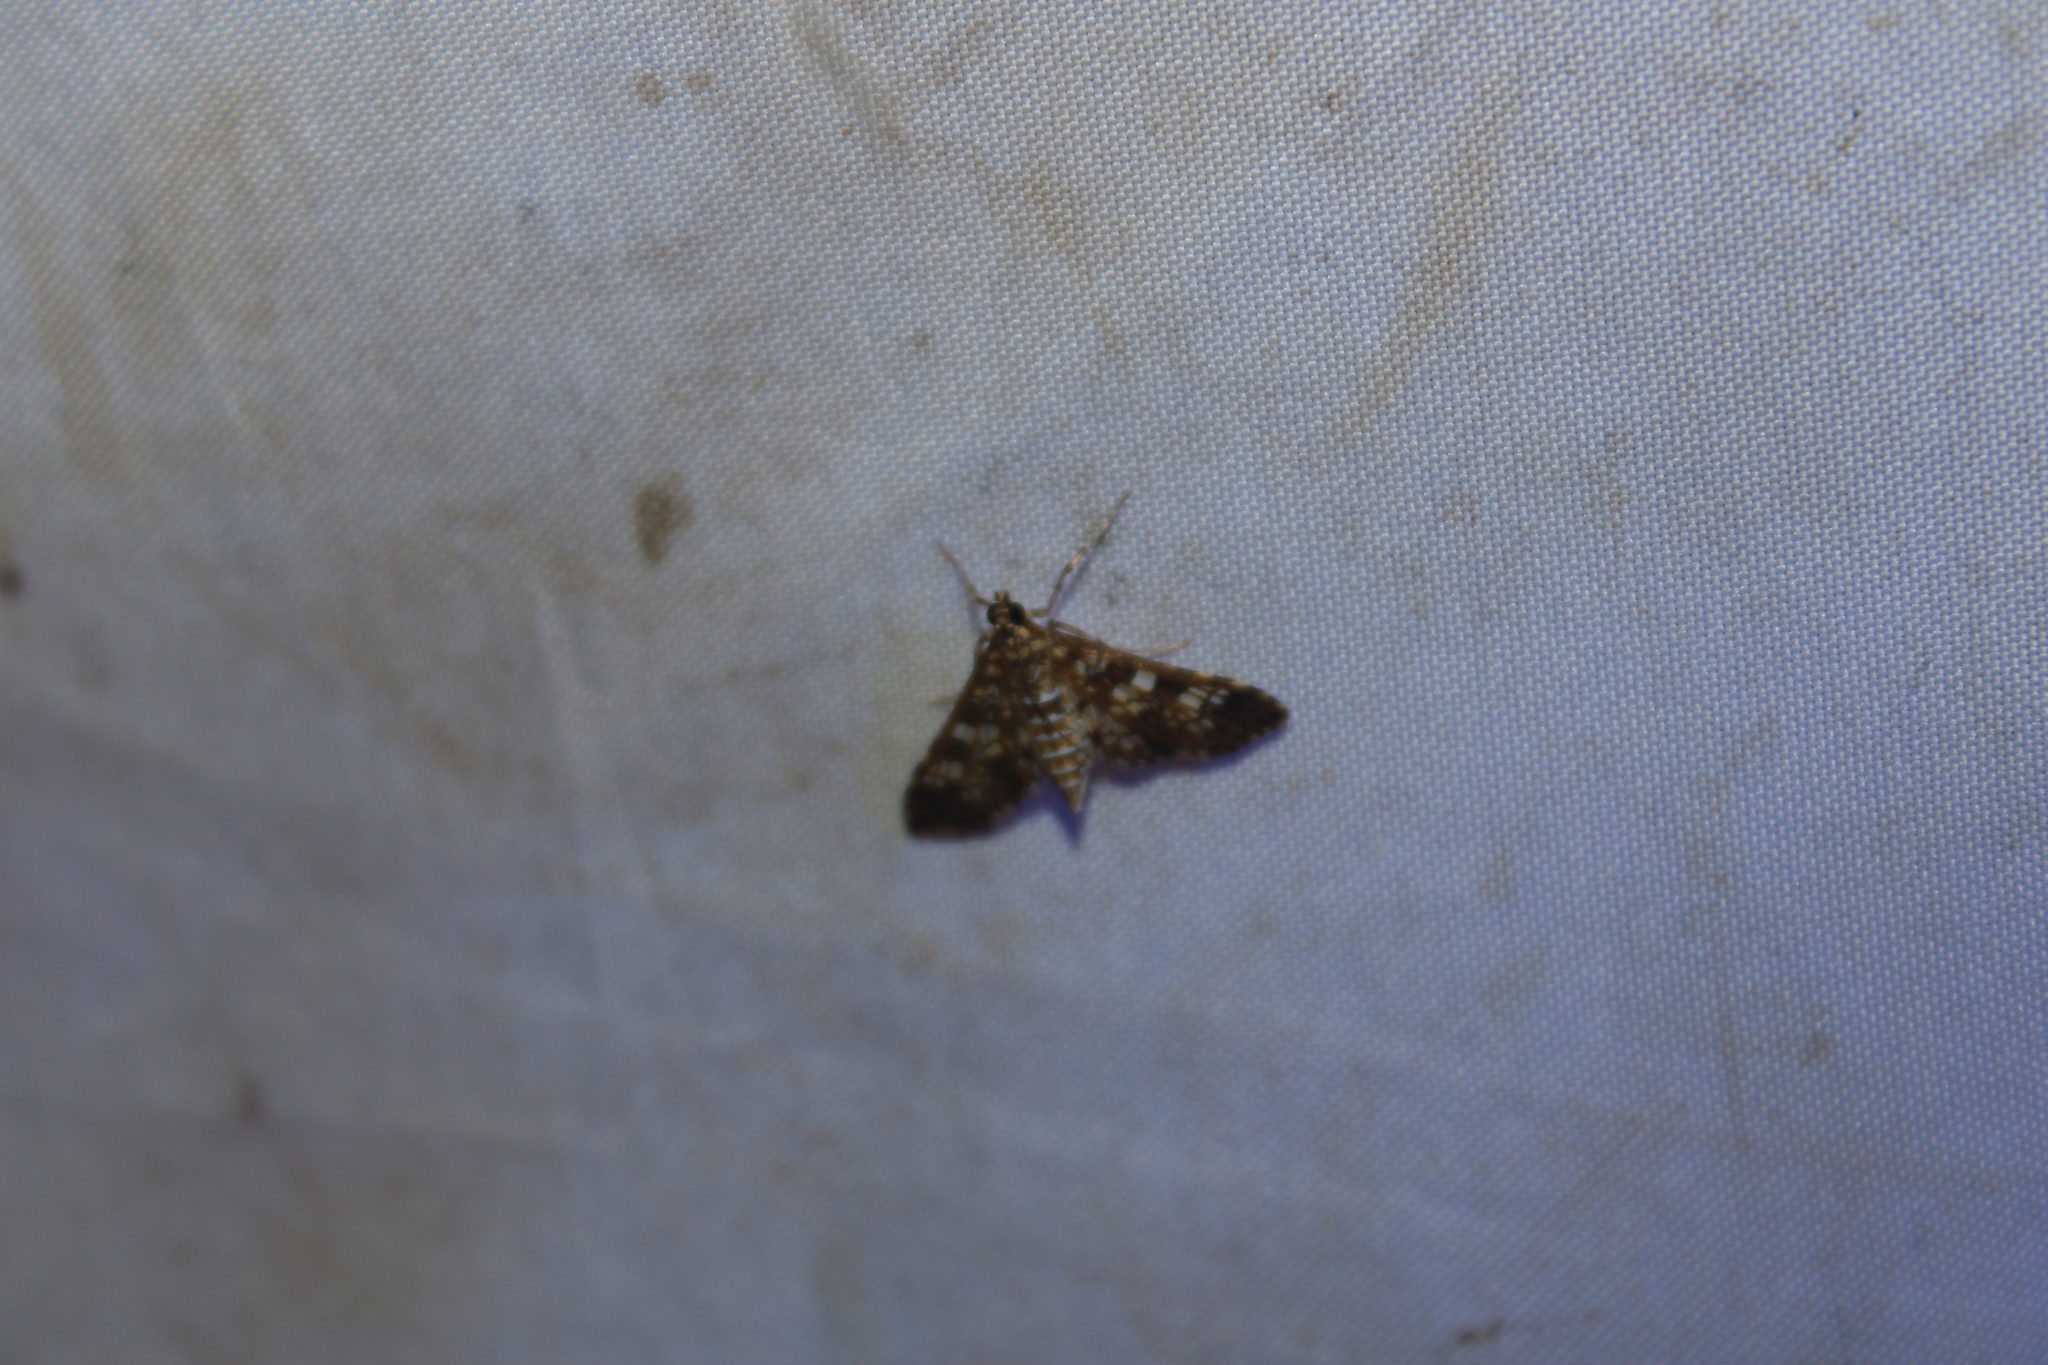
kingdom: Animalia
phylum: Arthropoda
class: Insecta
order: Lepidoptera
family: Crambidae
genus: Samea
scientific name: Samea ecclesialis
